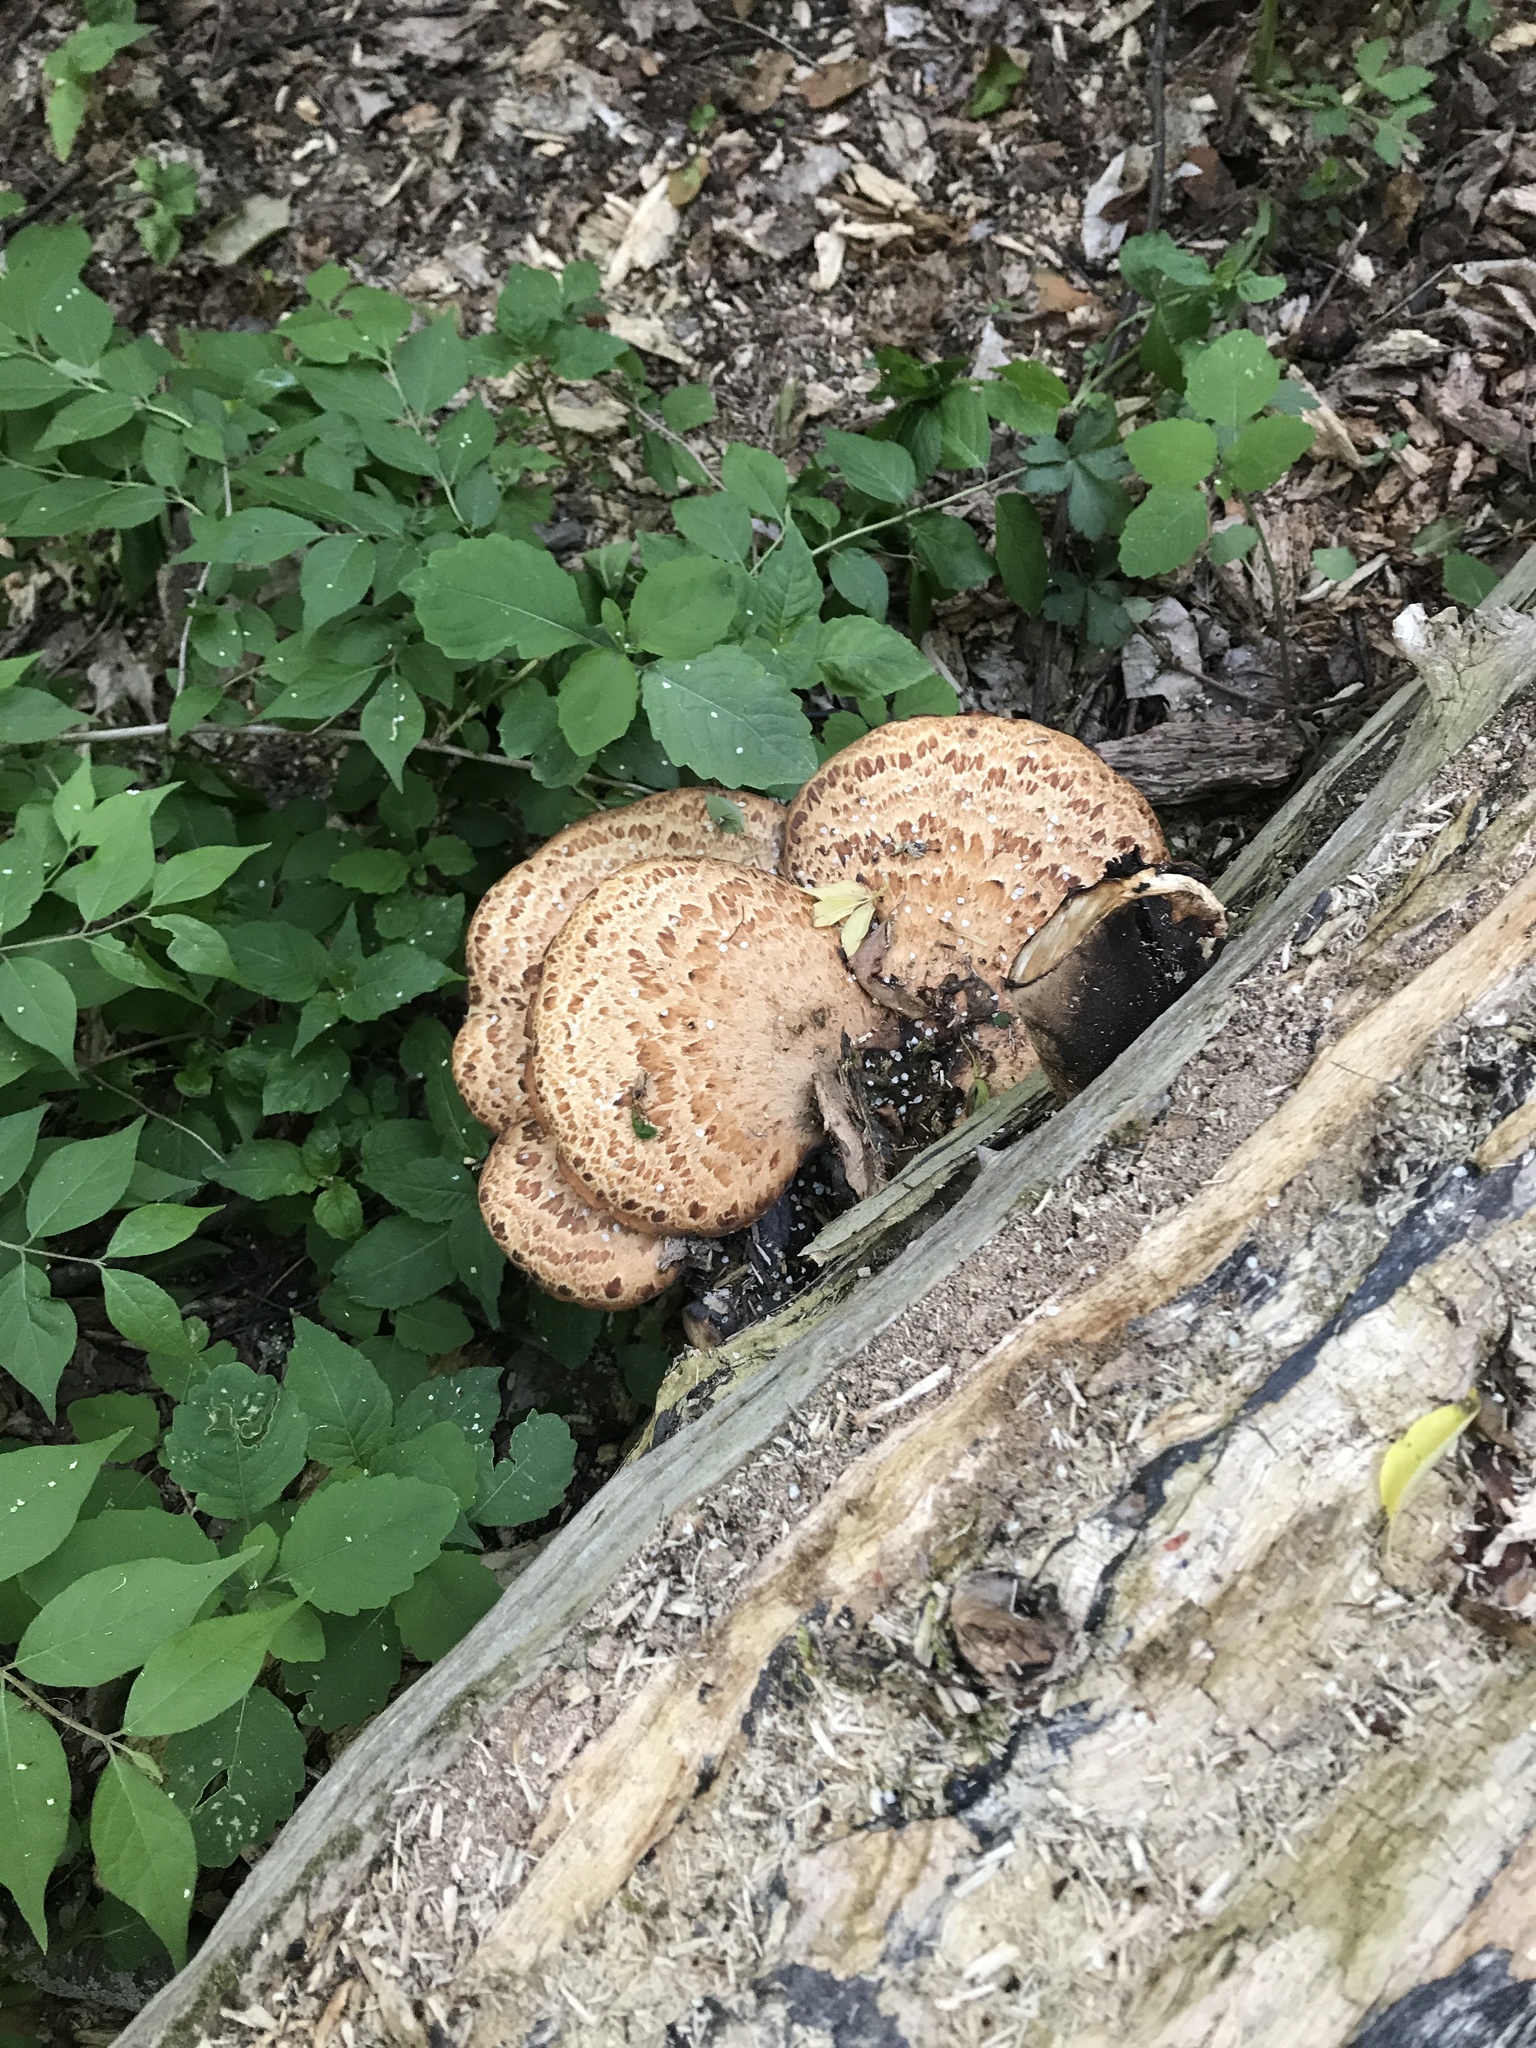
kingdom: Fungi
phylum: Basidiomycota
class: Agaricomycetes
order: Polyporales
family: Polyporaceae
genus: Cerioporus
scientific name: Cerioporus squamosus
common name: Dryad's saddle
